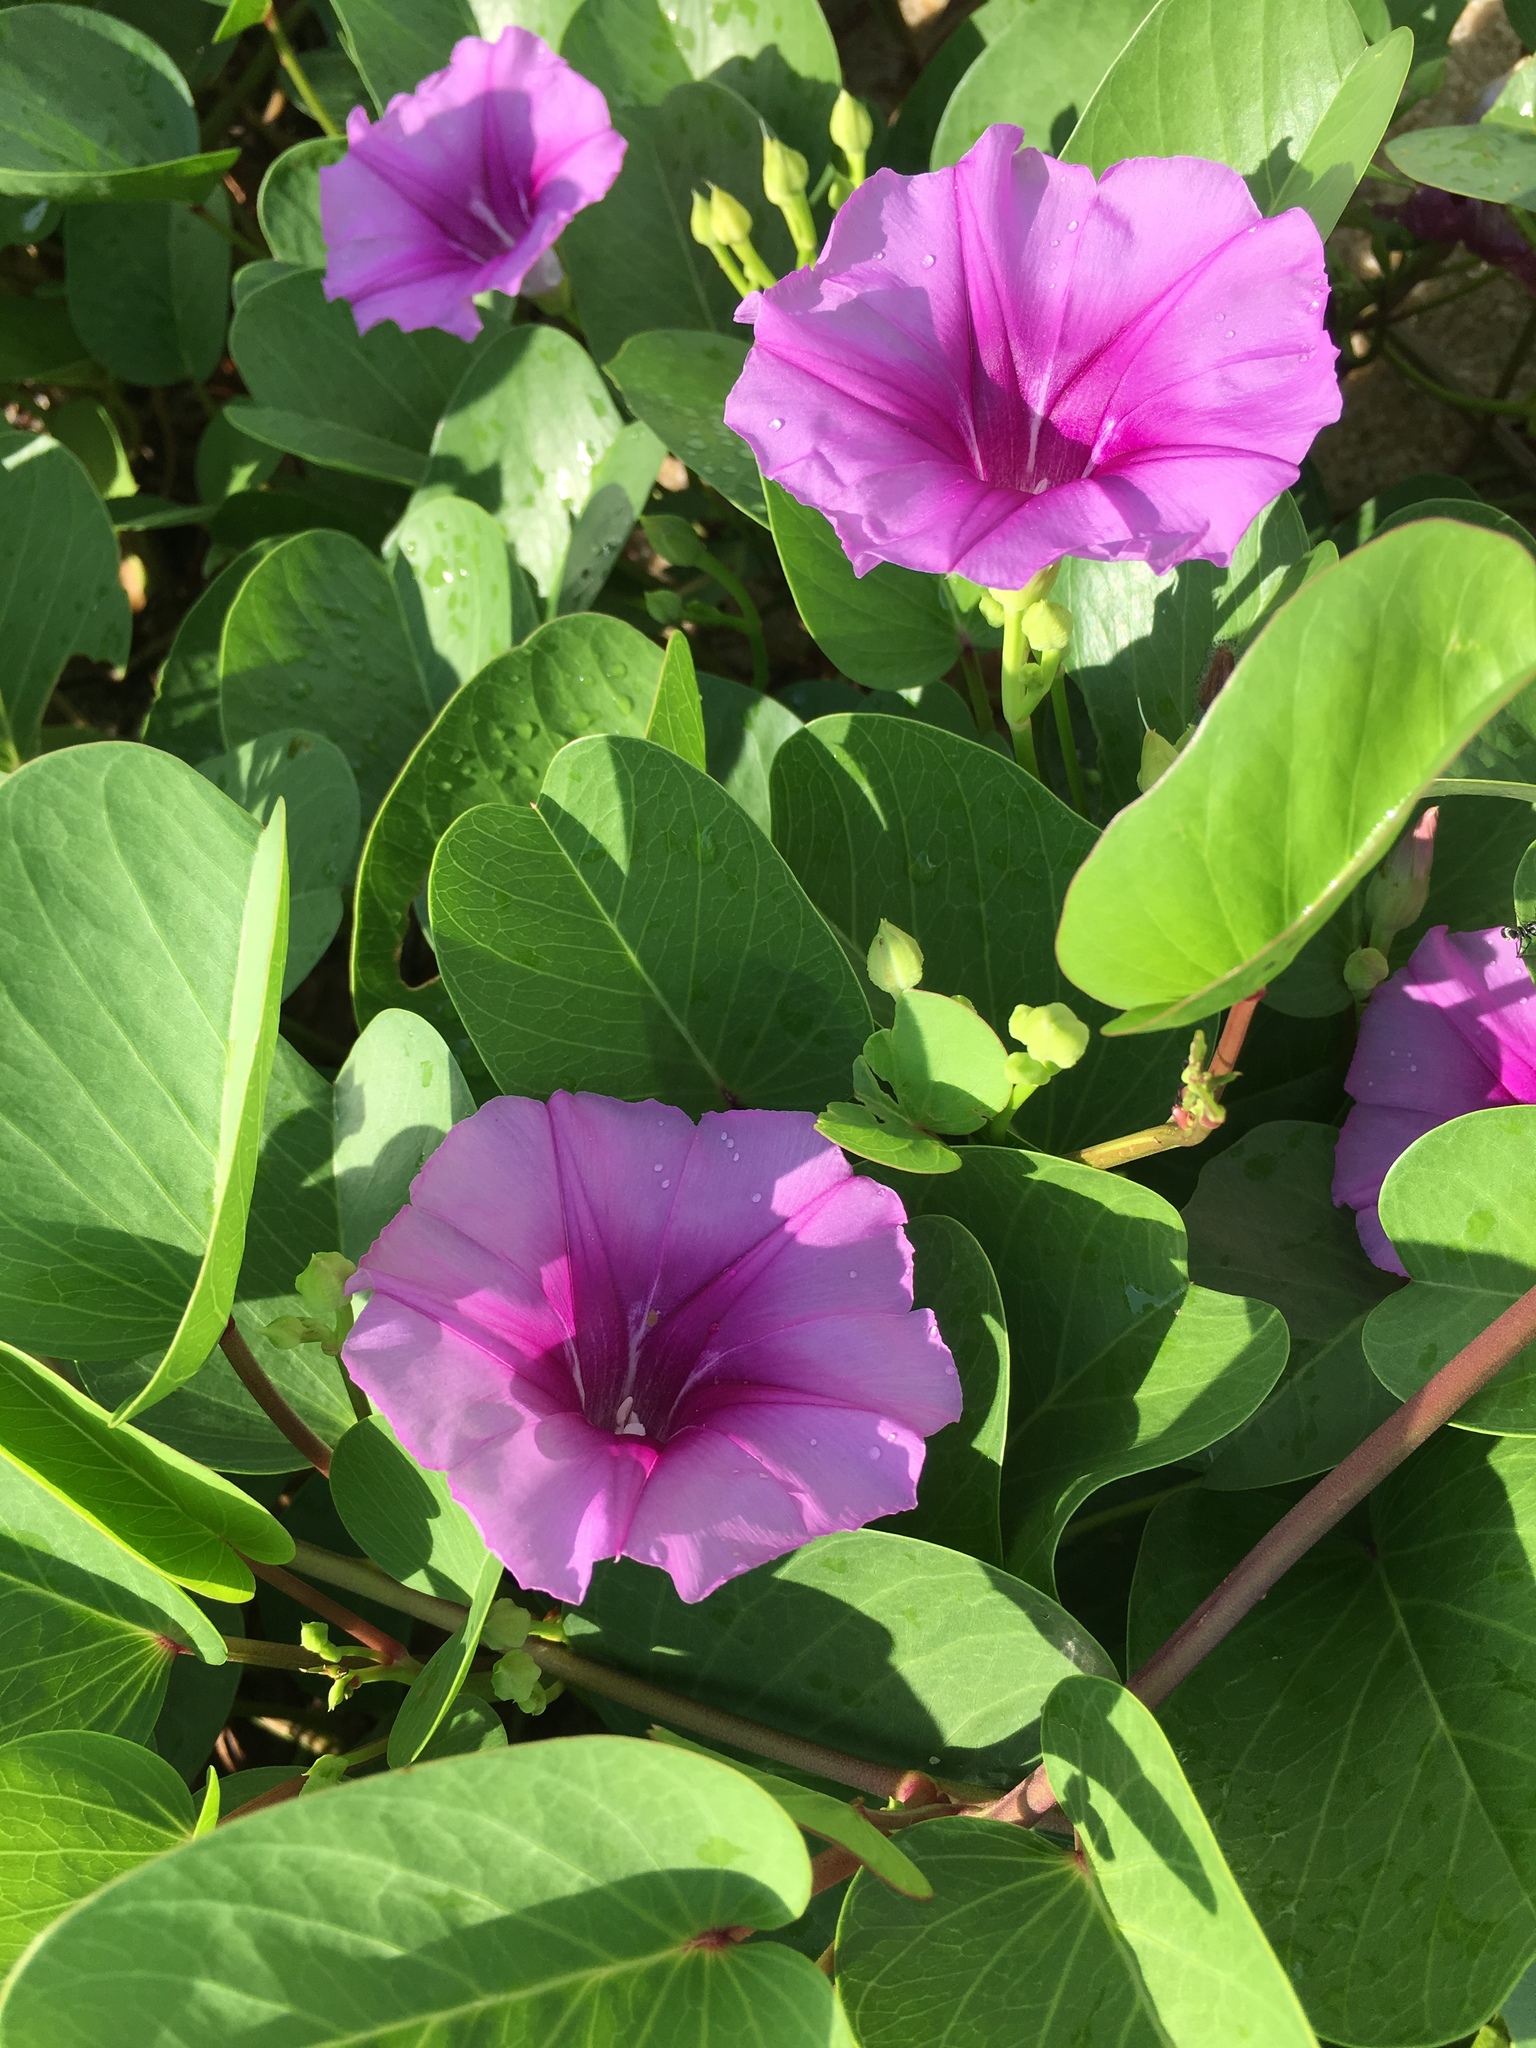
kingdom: Plantae
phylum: Tracheophyta
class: Magnoliopsida
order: Solanales
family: Convolvulaceae
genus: Ipomoea
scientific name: Ipomoea pes-caprae
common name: Beach morning glory
